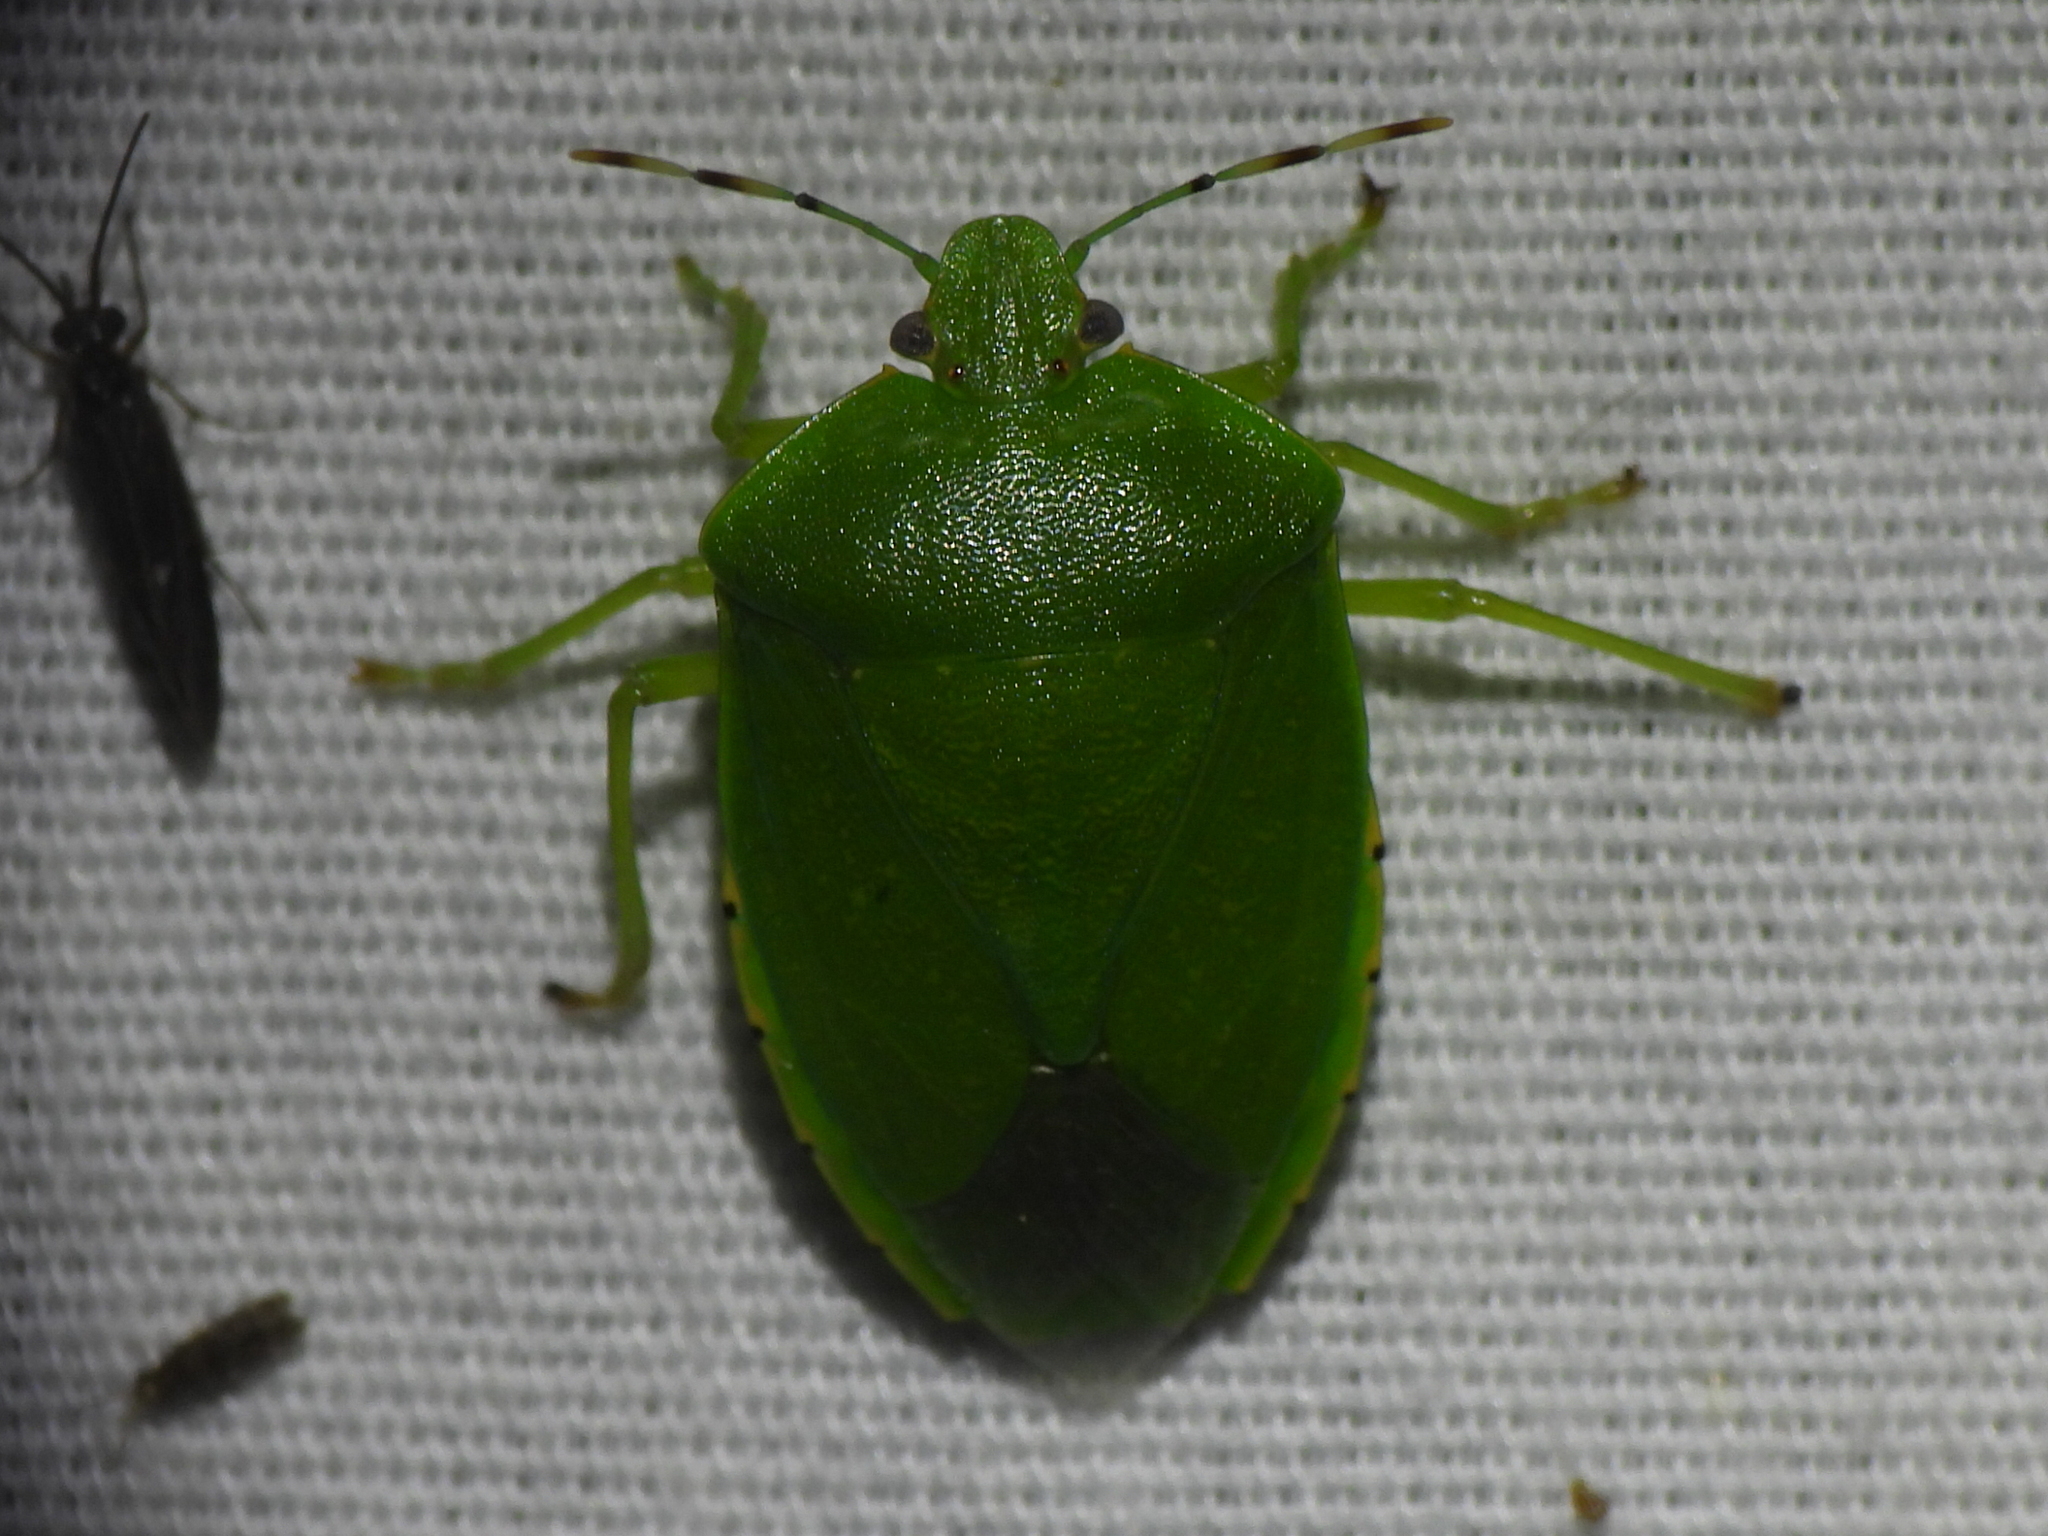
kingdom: Animalia
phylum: Arthropoda
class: Insecta
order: Hemiptera
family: Pentatomidae
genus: Chinavia
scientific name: Chinavia hilaris
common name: Green stink bug
